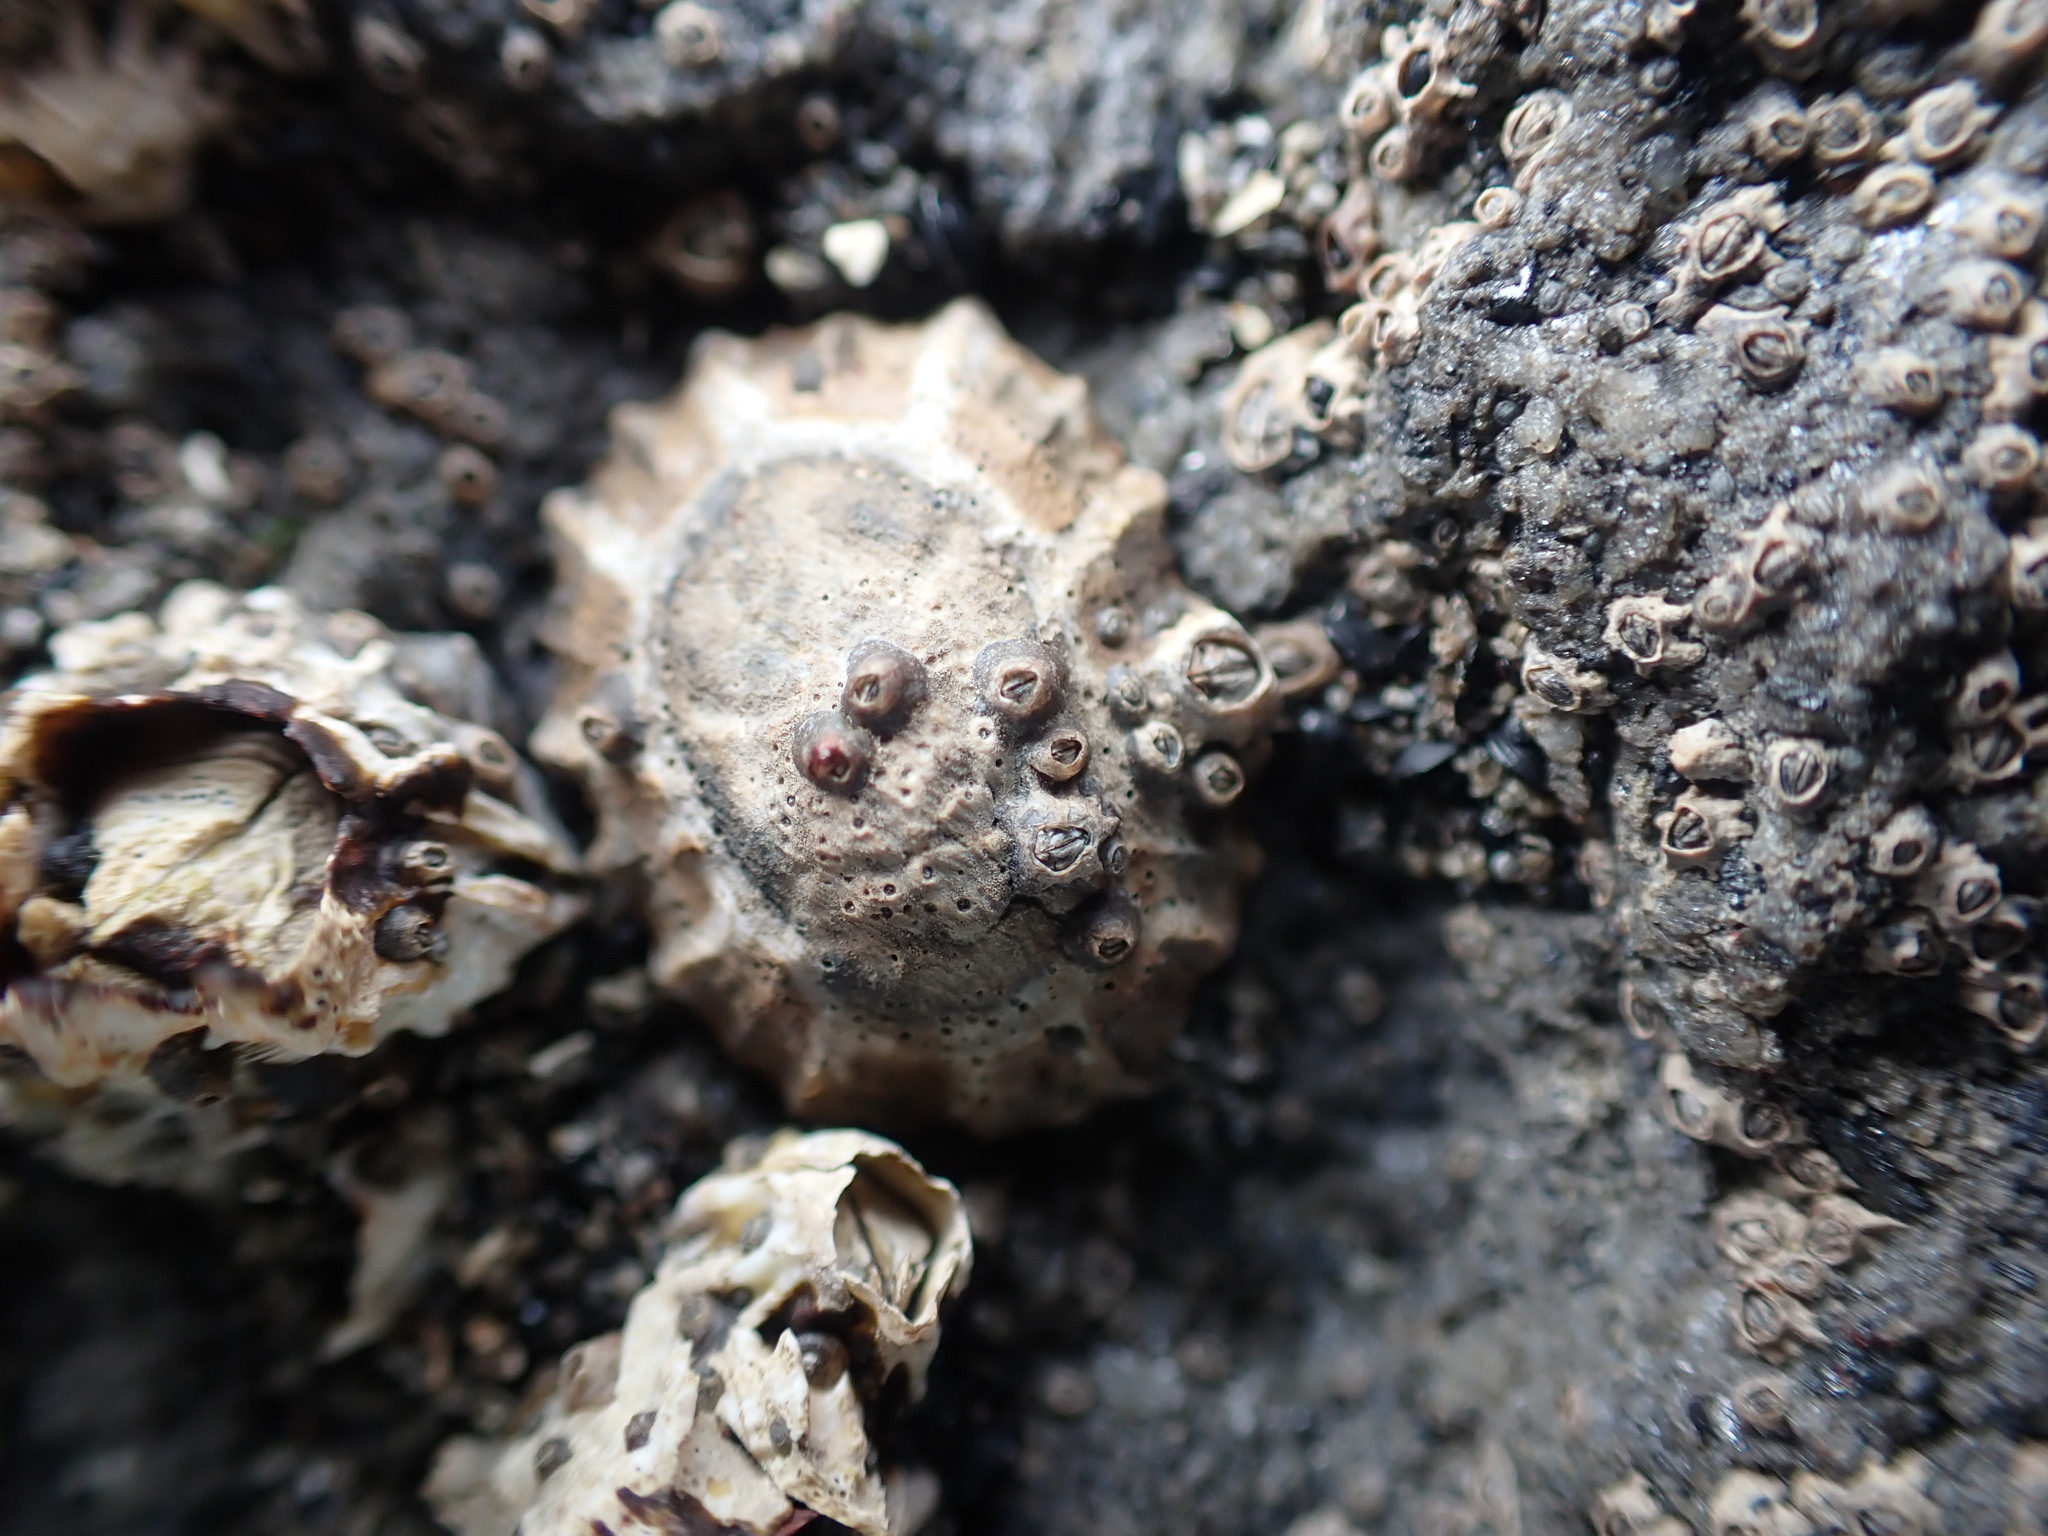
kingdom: Animalia
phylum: Mollusca
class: Gastropoda
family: Nacellidae
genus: Cellana
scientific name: Cellana ornata
